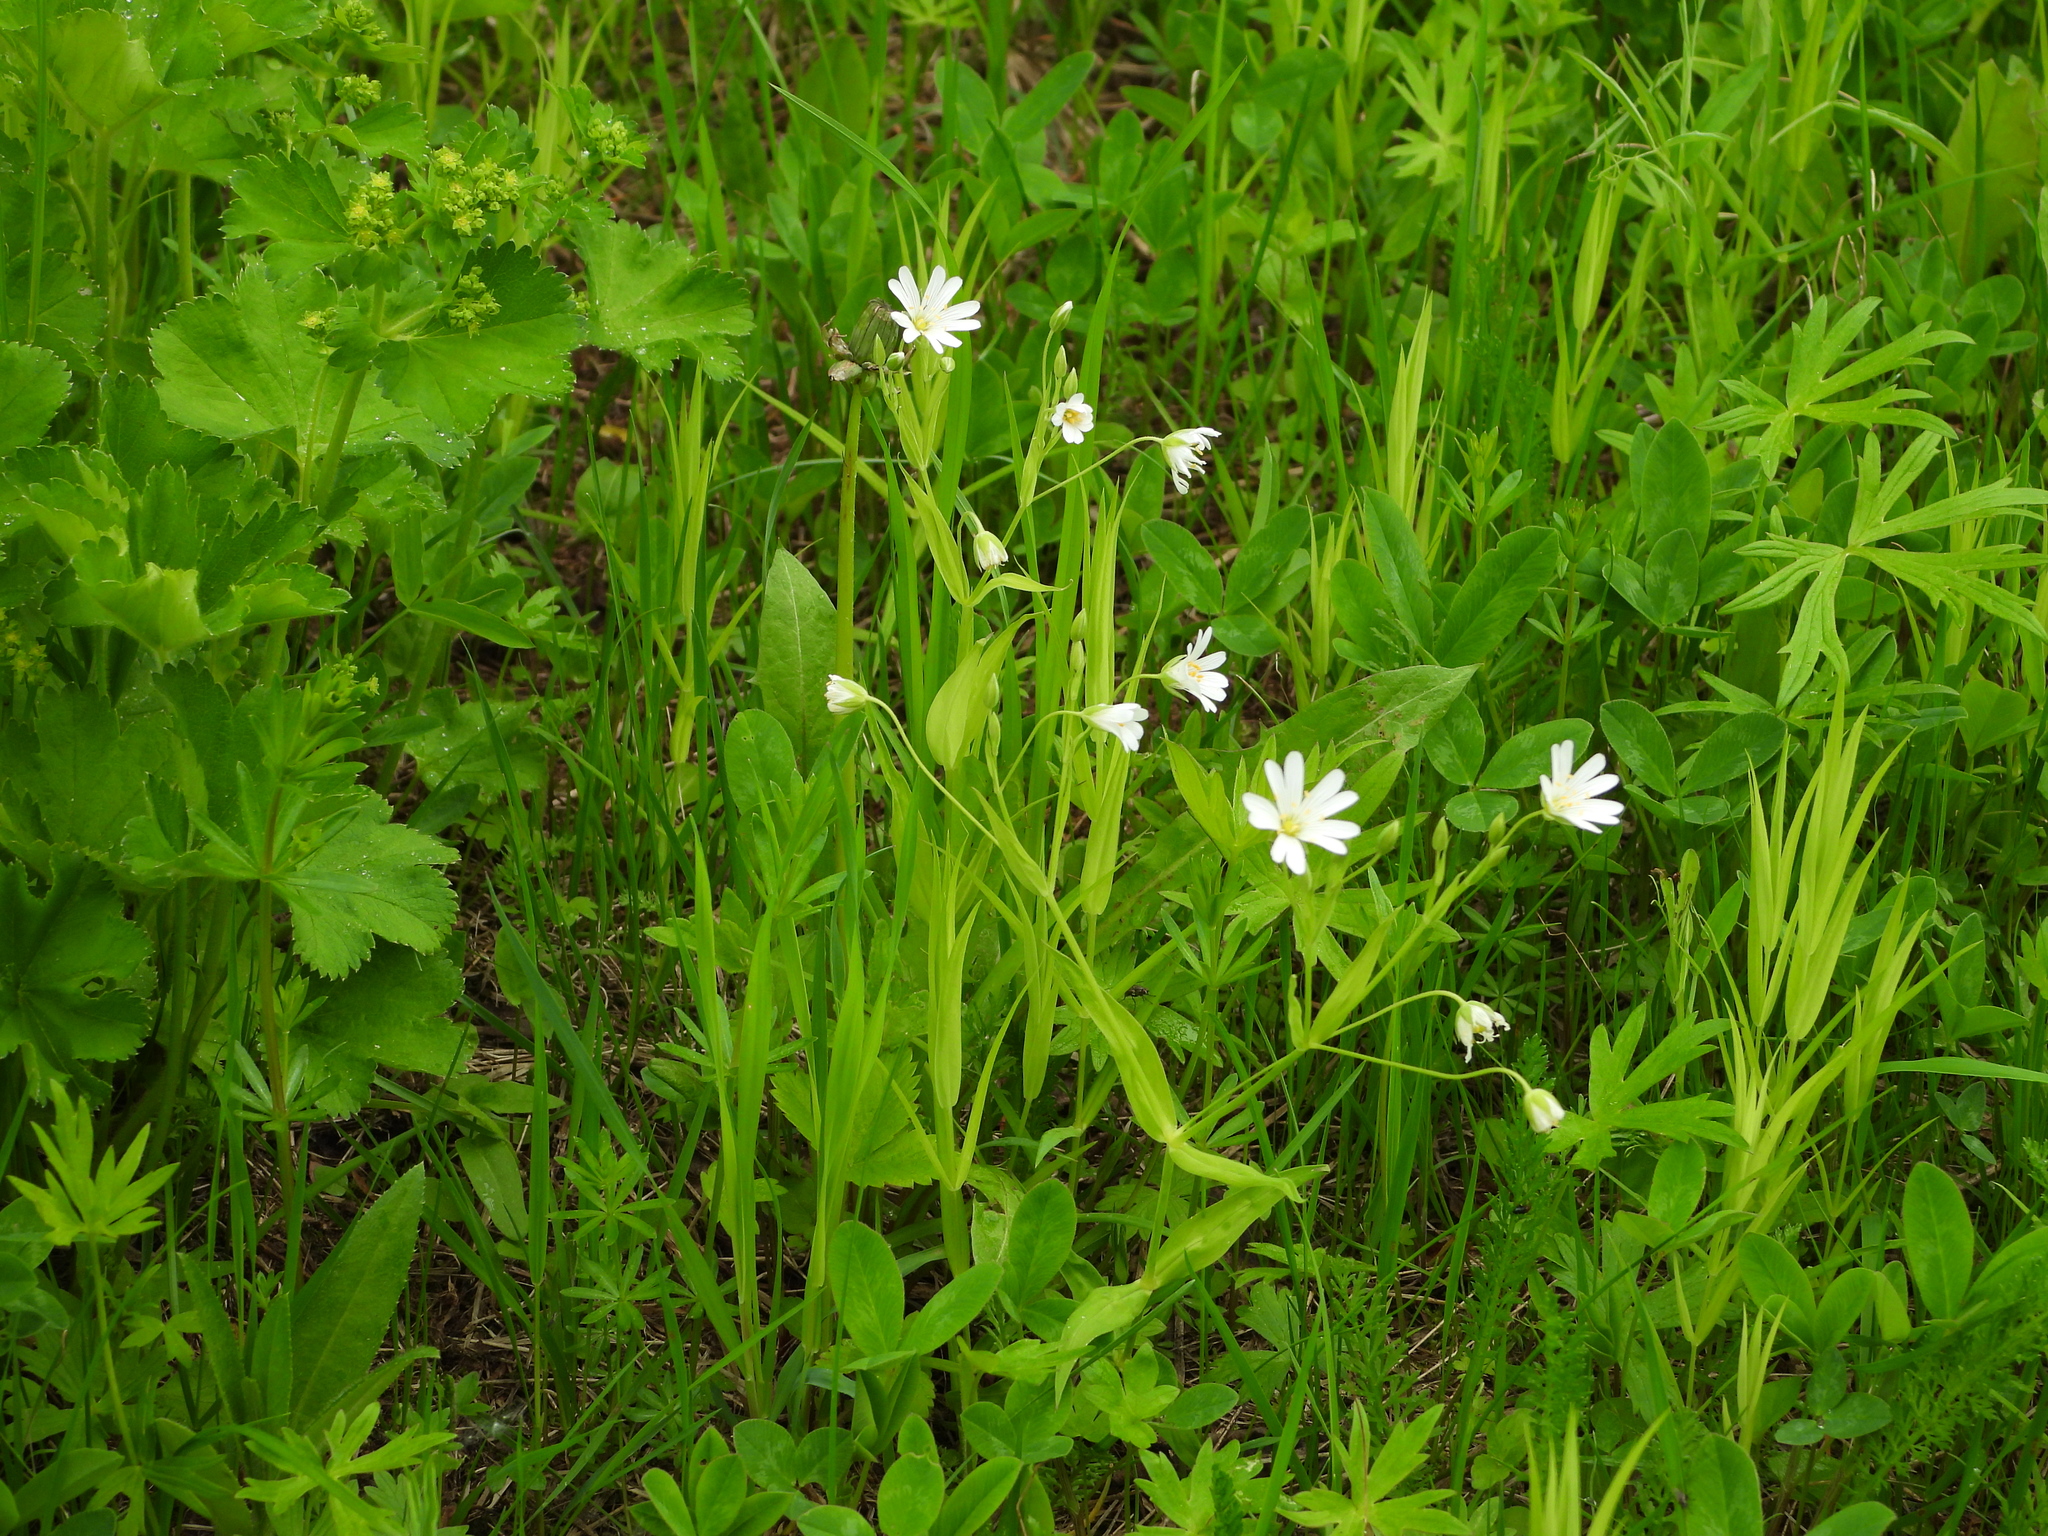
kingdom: Plantae
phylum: Tracheophyta
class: Magnoliopsida
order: Caryophyllales
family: Caryophyllaceae
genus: Rabelera
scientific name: Rabelera holostea
